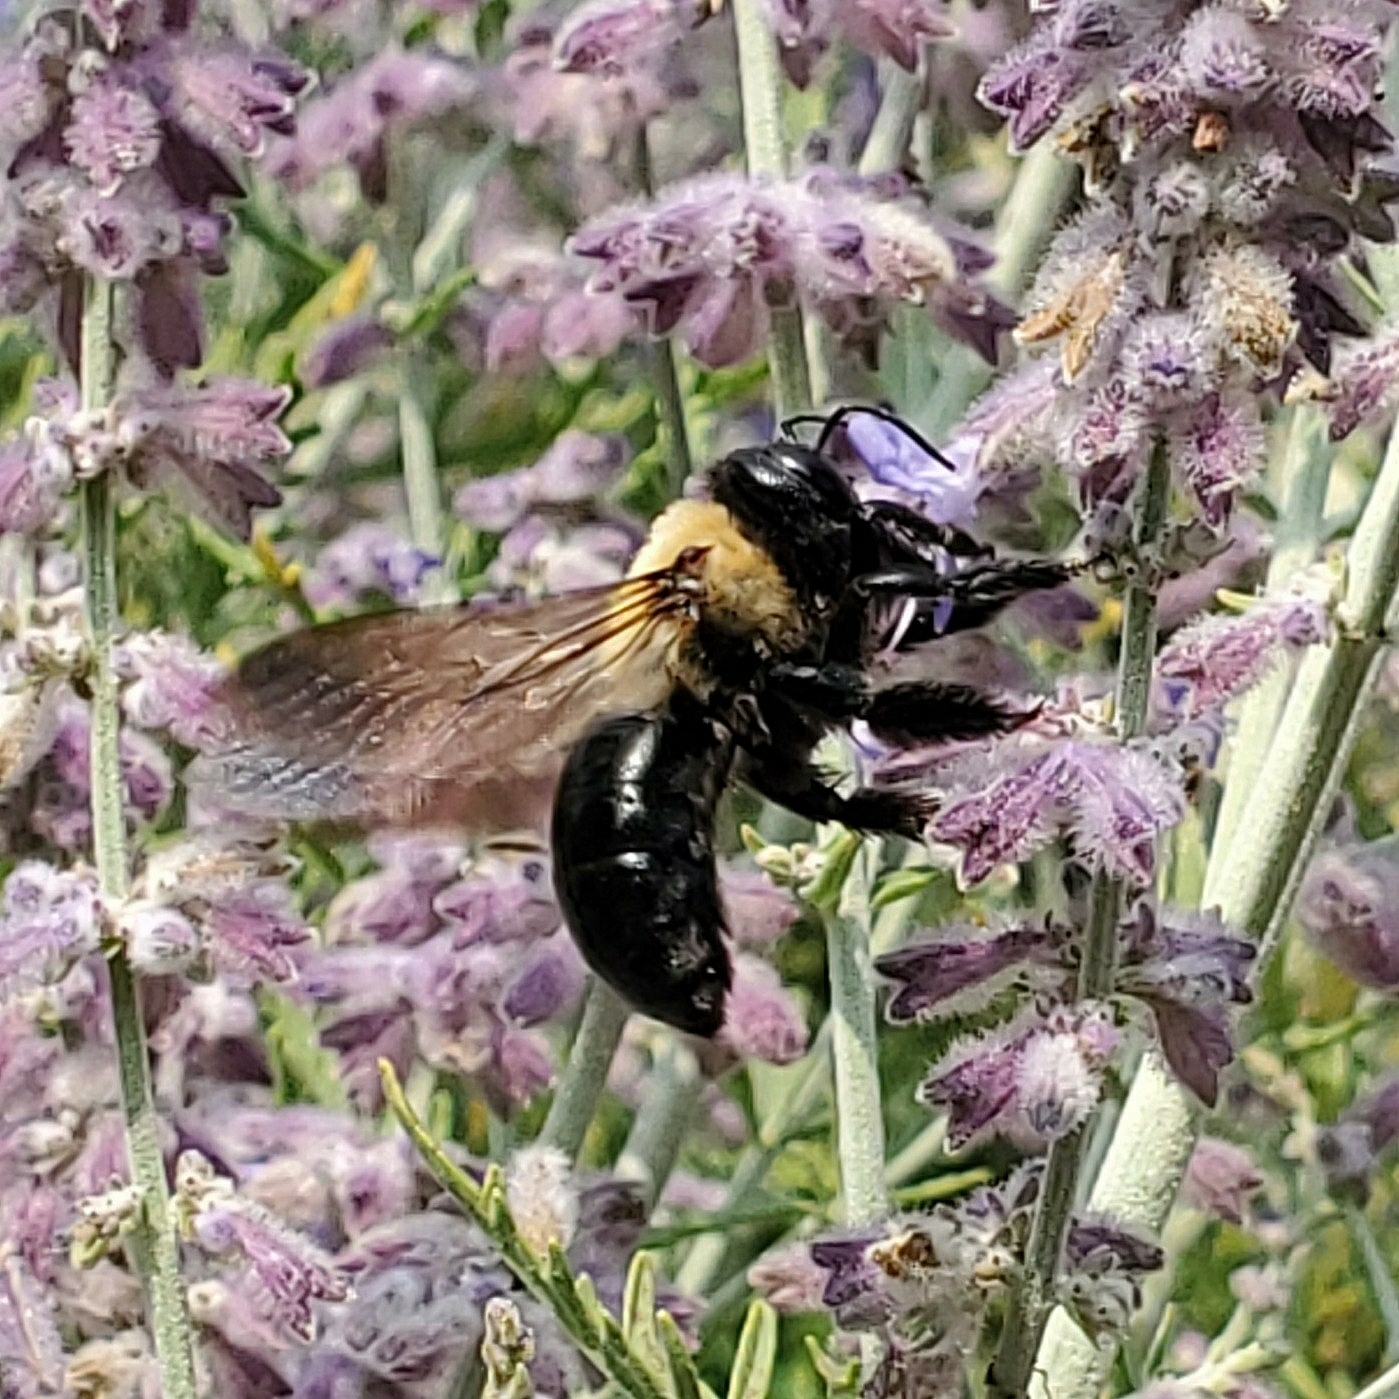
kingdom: Animalia
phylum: Arthropoda
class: Insecta
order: Hymenoptera
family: Apidae
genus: Xylocopa
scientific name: Xylocopa virginica
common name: Carpenter bee
